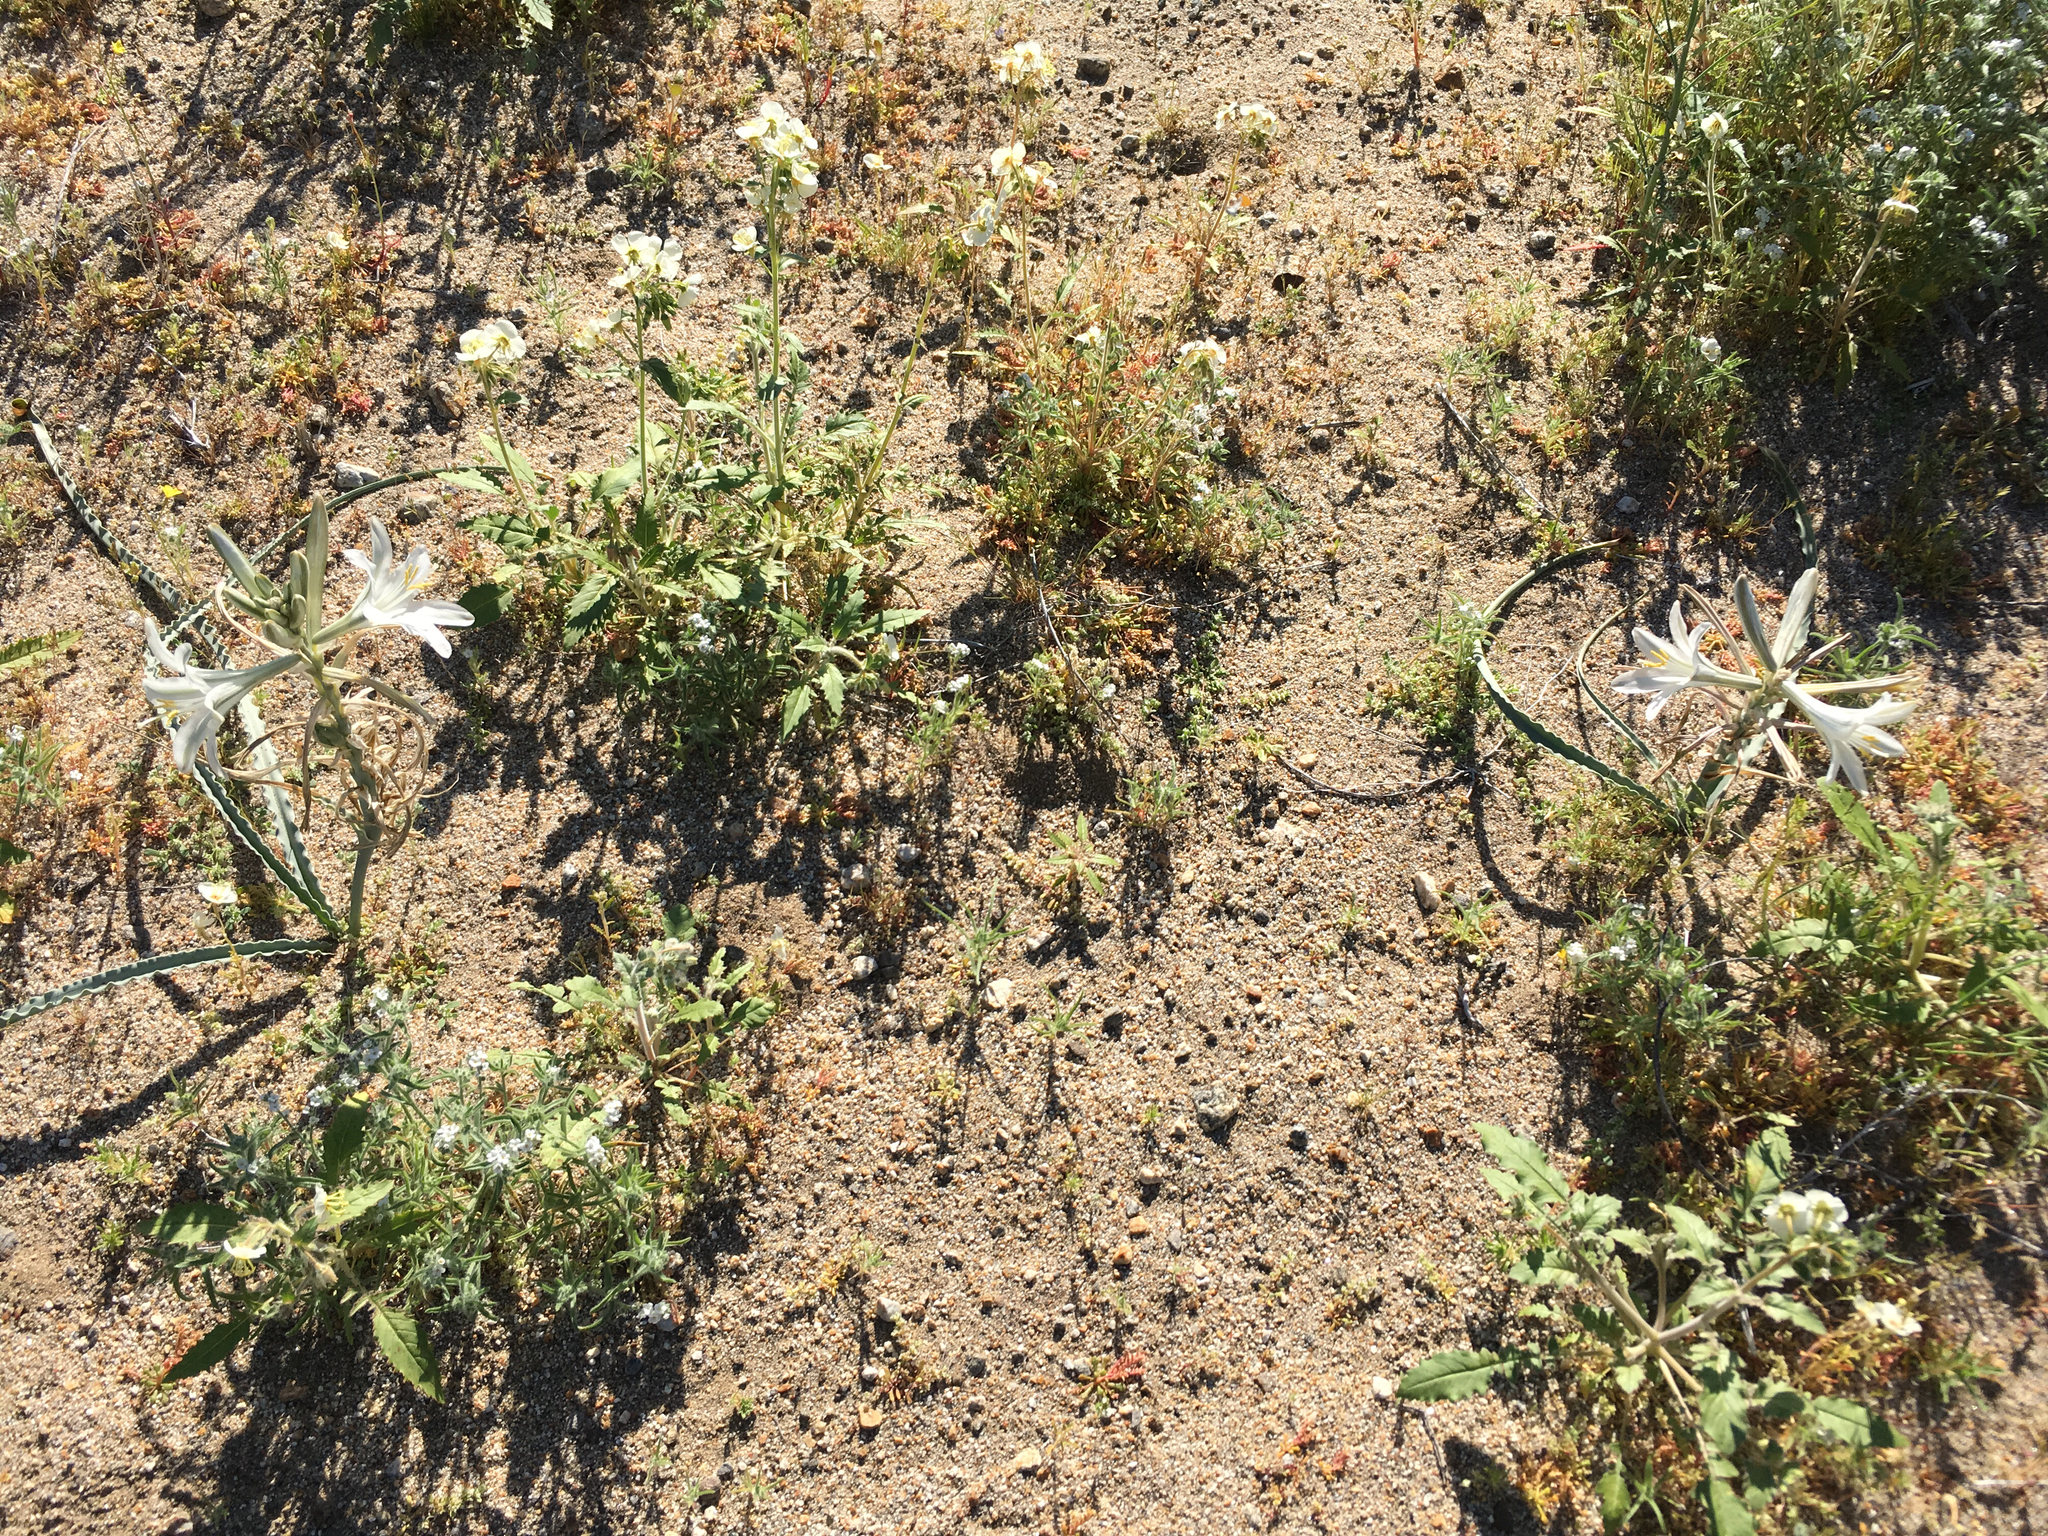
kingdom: Plantae
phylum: Tracheophyta
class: Liliopsida
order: Asparagales
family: Asparagaceae
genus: Hesperocallis
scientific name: Hesperocallis undulata
